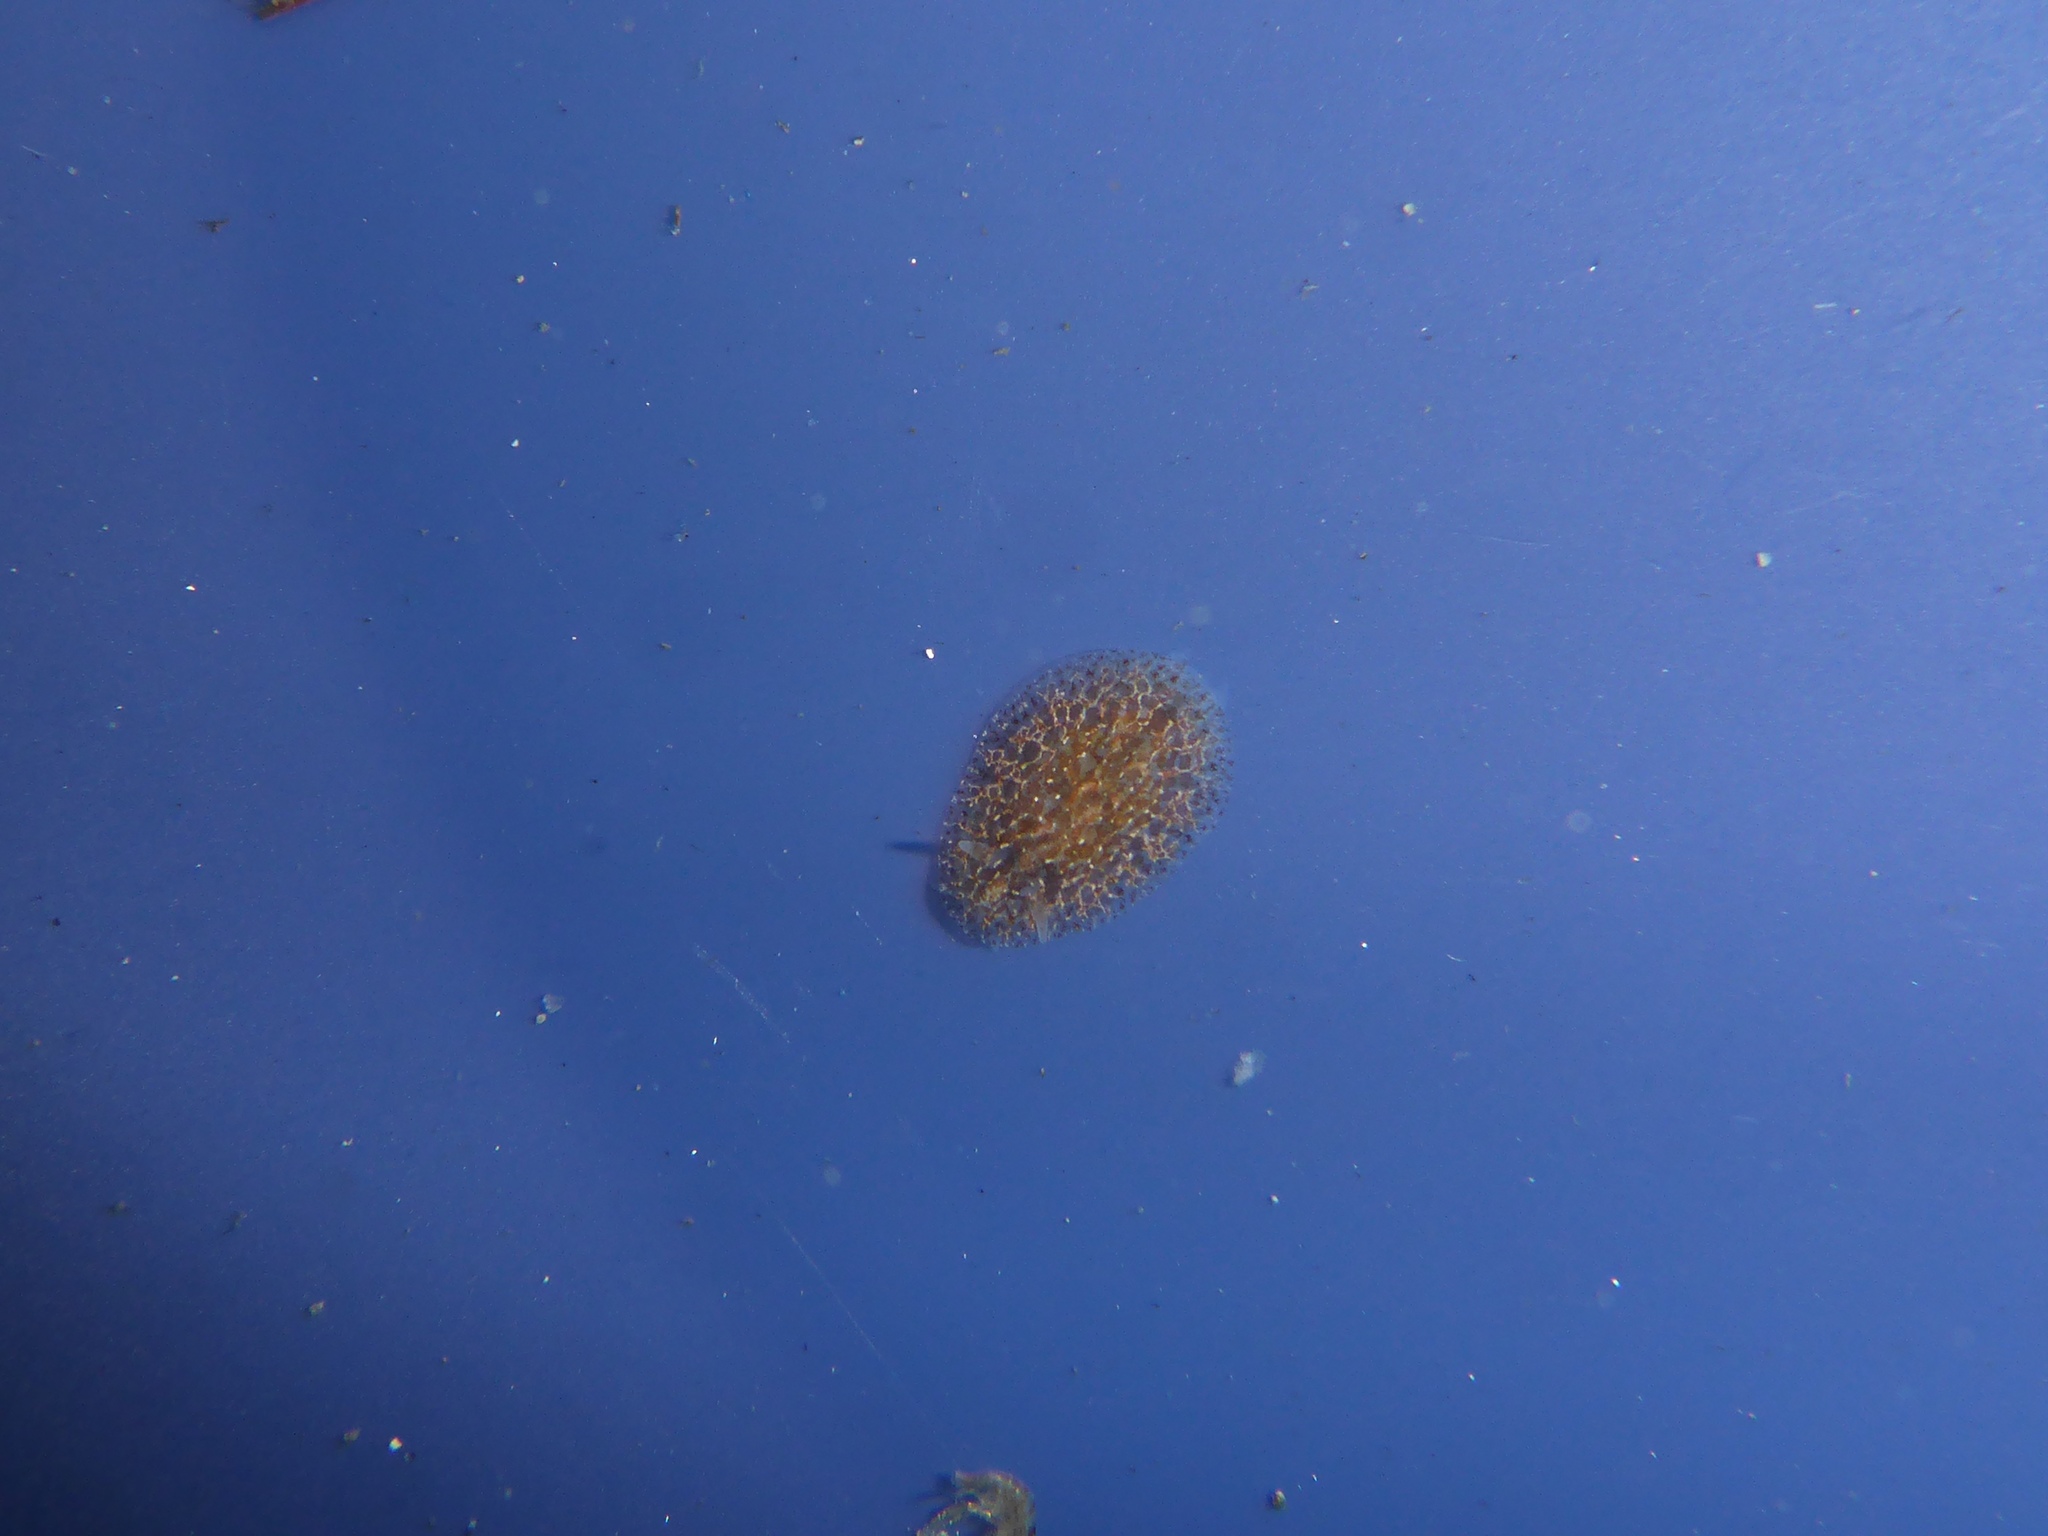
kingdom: Animalia
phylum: Mollusca
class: Gastropoda
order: Nudibranchia
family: Corambidae
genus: Corambe
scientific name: Corambe steinbergae
